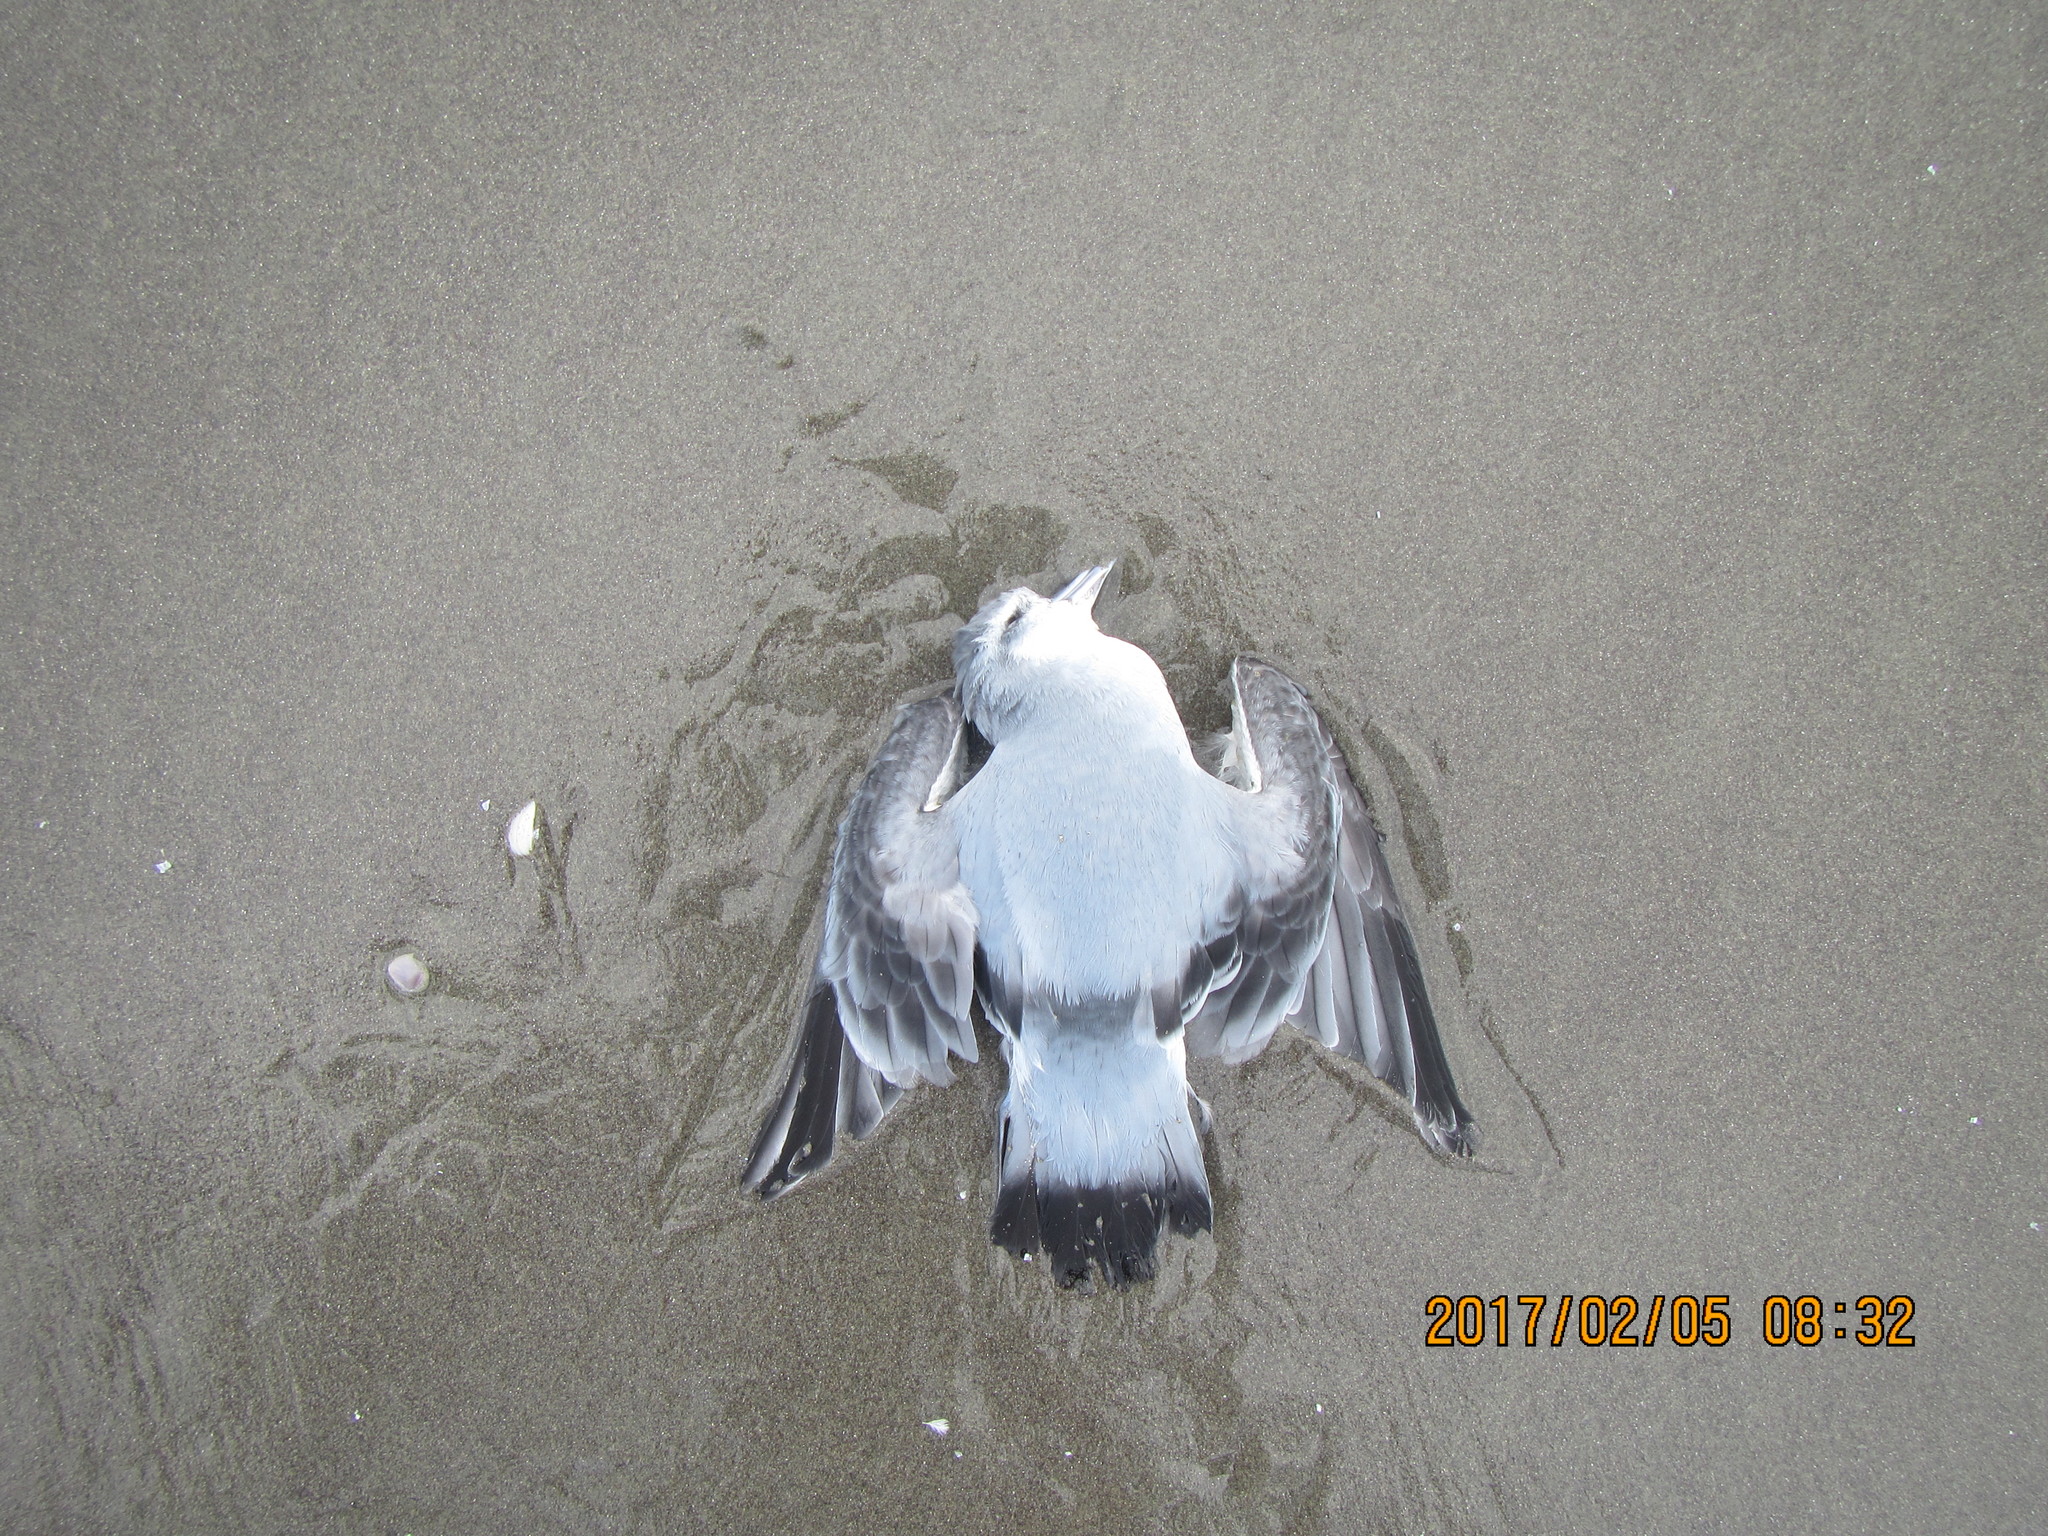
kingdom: Animalia
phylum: Chordata
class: Aves
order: Procellariiformes
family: Procellariidae
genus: Pachyptila
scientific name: Pachyptila turtur
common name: Fairy prion
